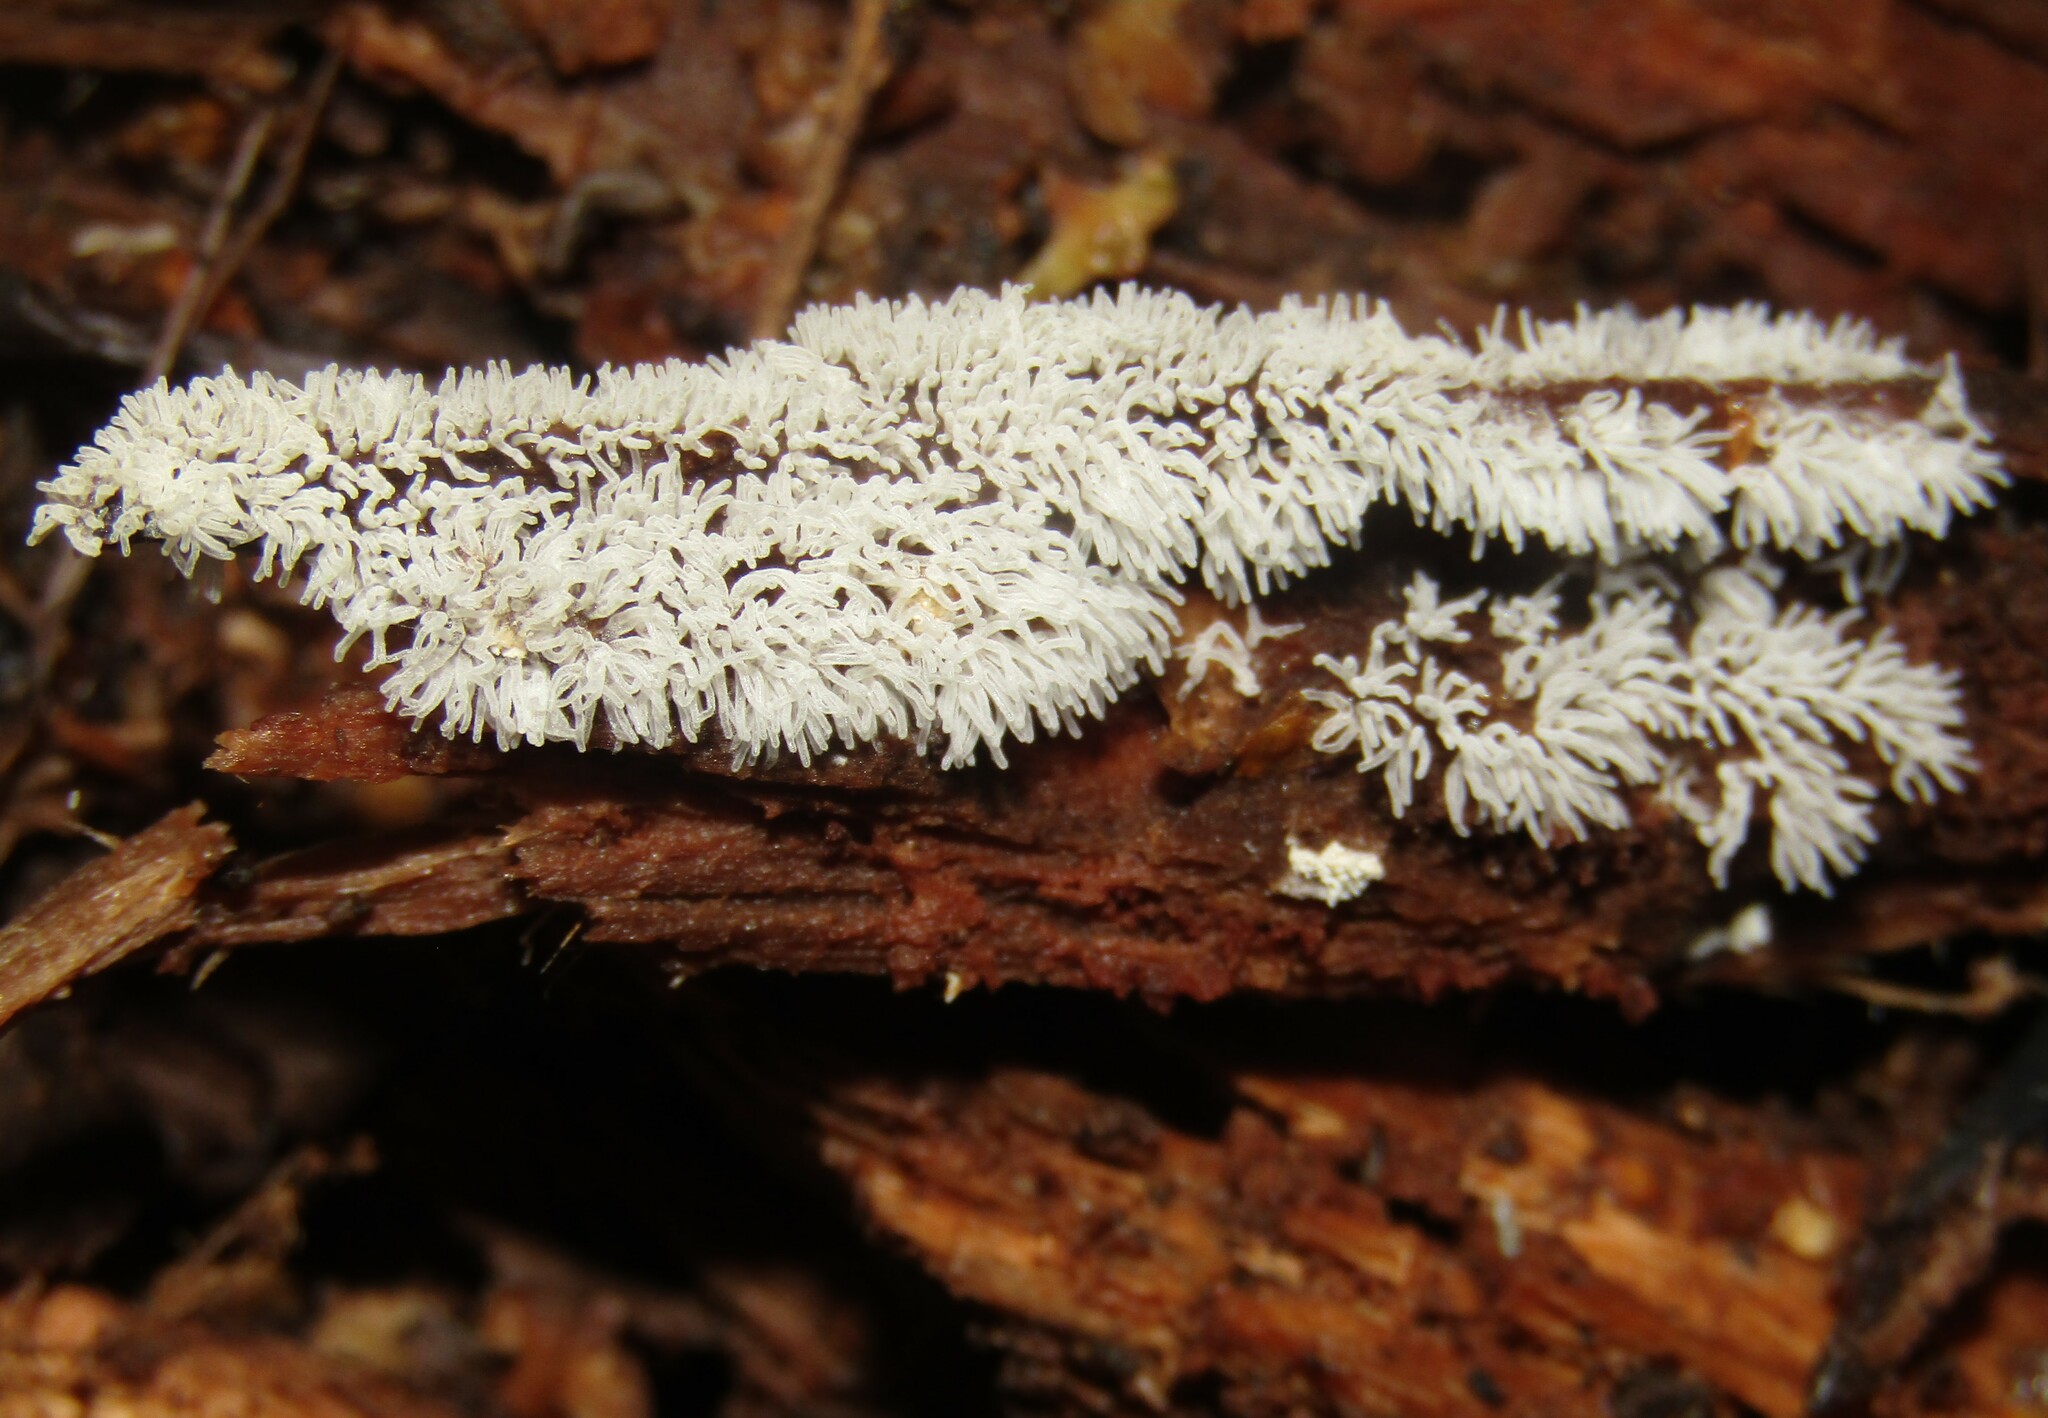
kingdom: Protozoa
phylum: Mycetozoa
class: Protosteliomycetes
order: Ceratiomyxales
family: Ceratiomyxaceae
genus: Ceratiomyxa
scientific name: Ceratiomyxa fruticulosa
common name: Honeycomb coral slime mold
